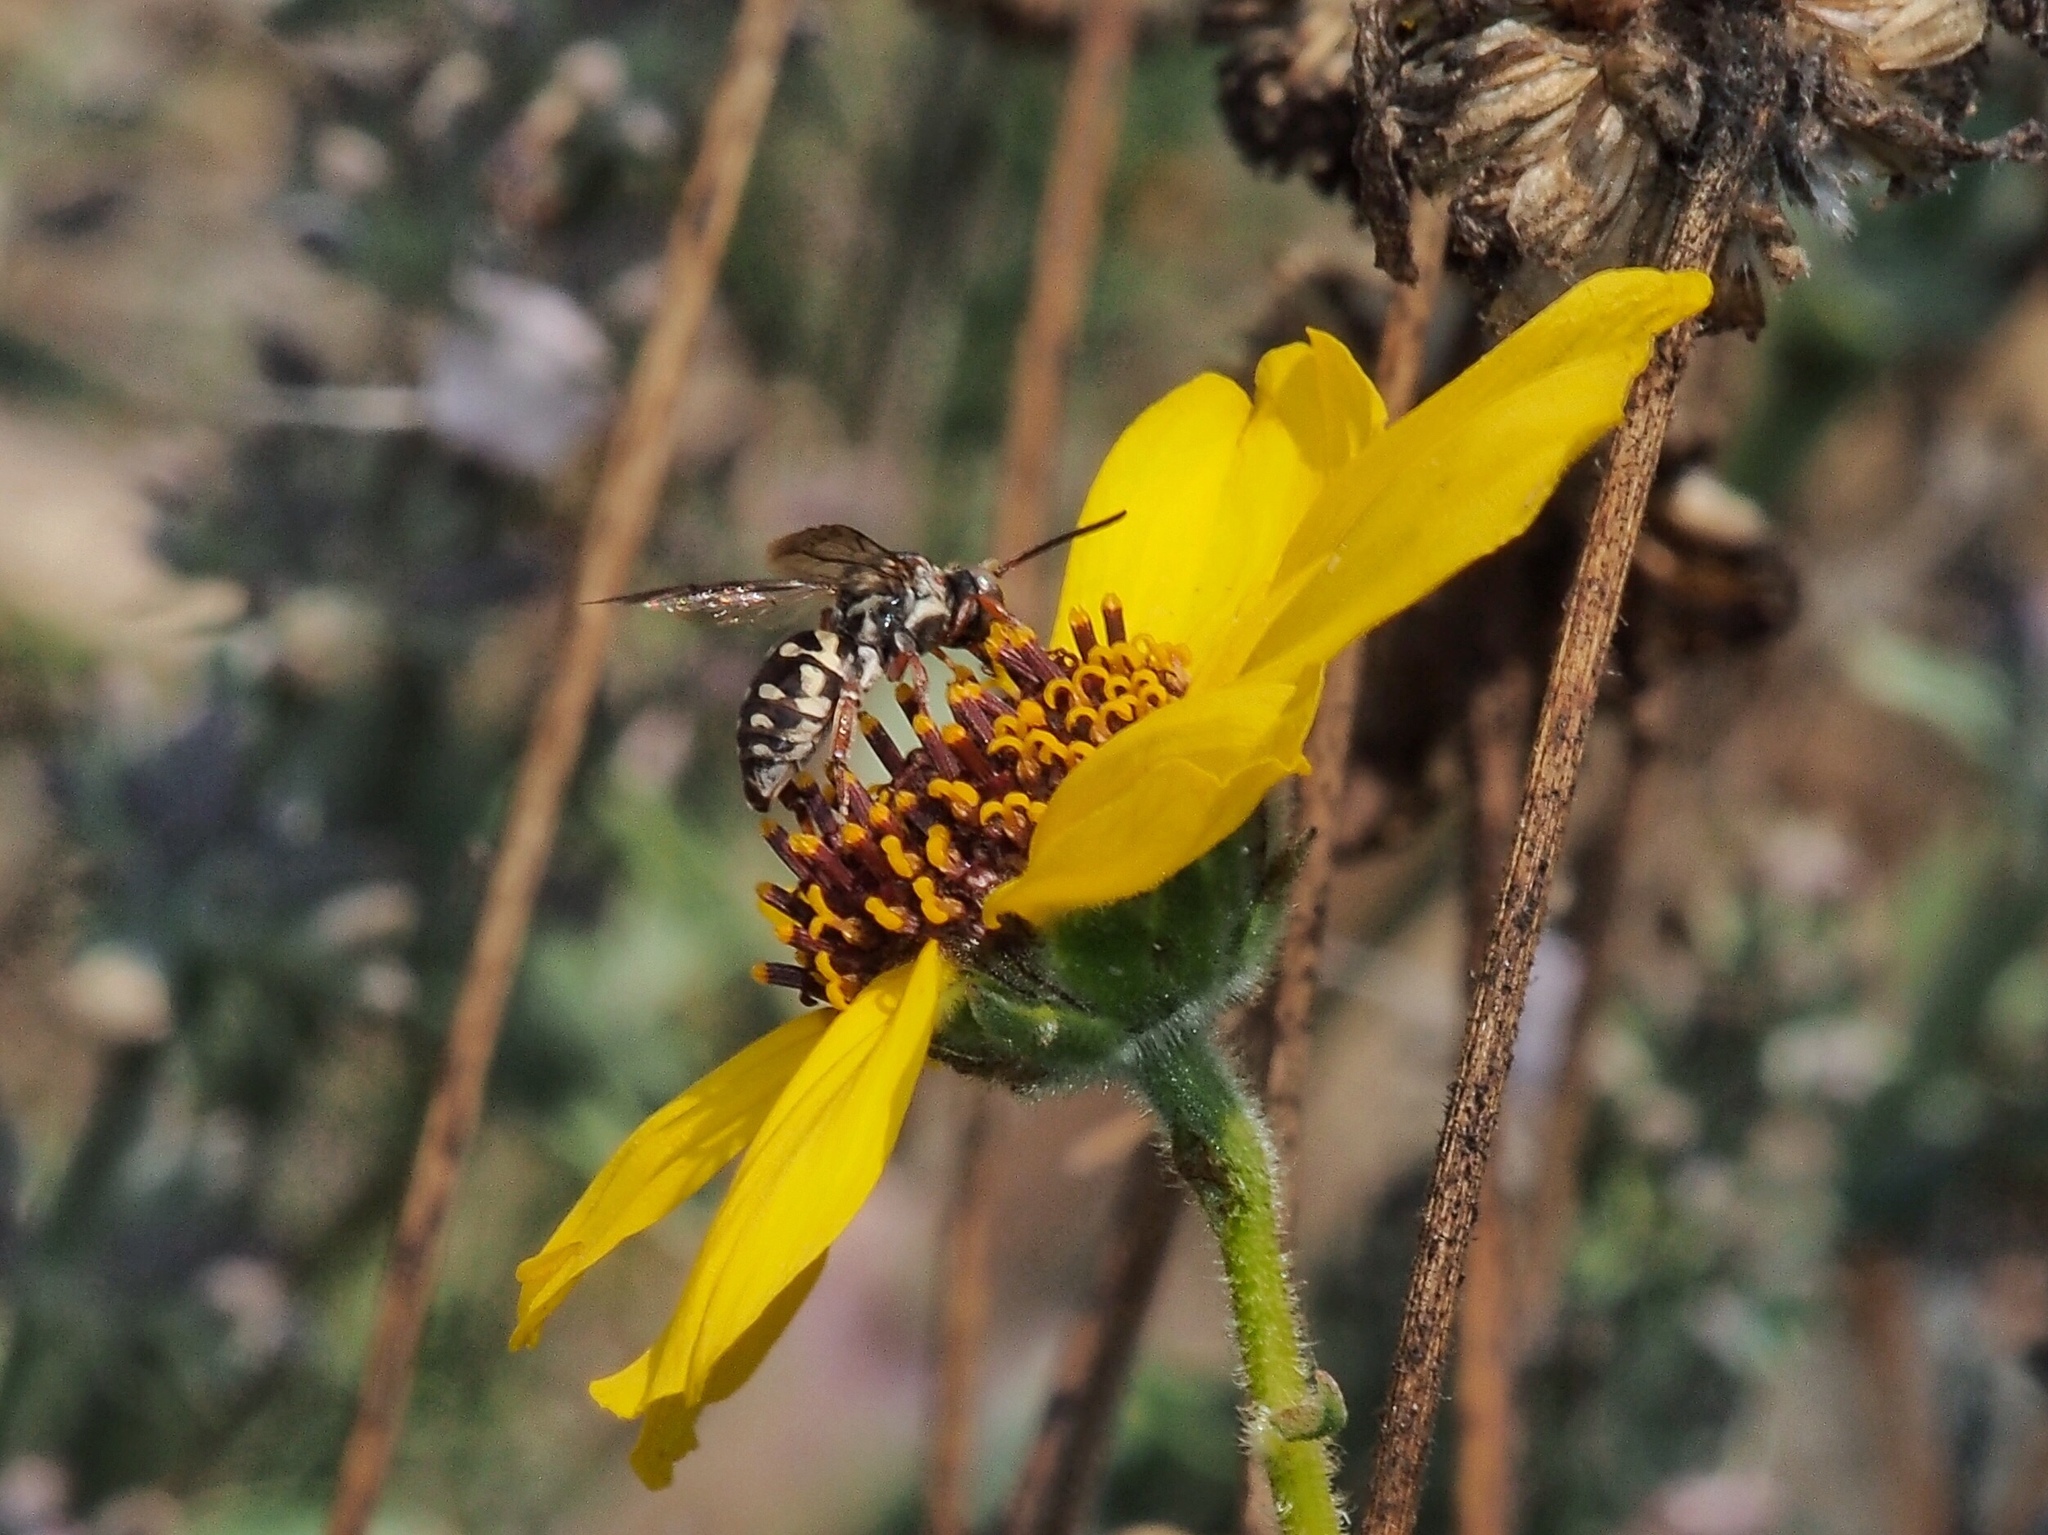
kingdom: Animalia
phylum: Arthropoda
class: Insecta
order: Hymenoptera
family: Apidae
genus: Triepeolus
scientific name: Triepeolus verbesinae
